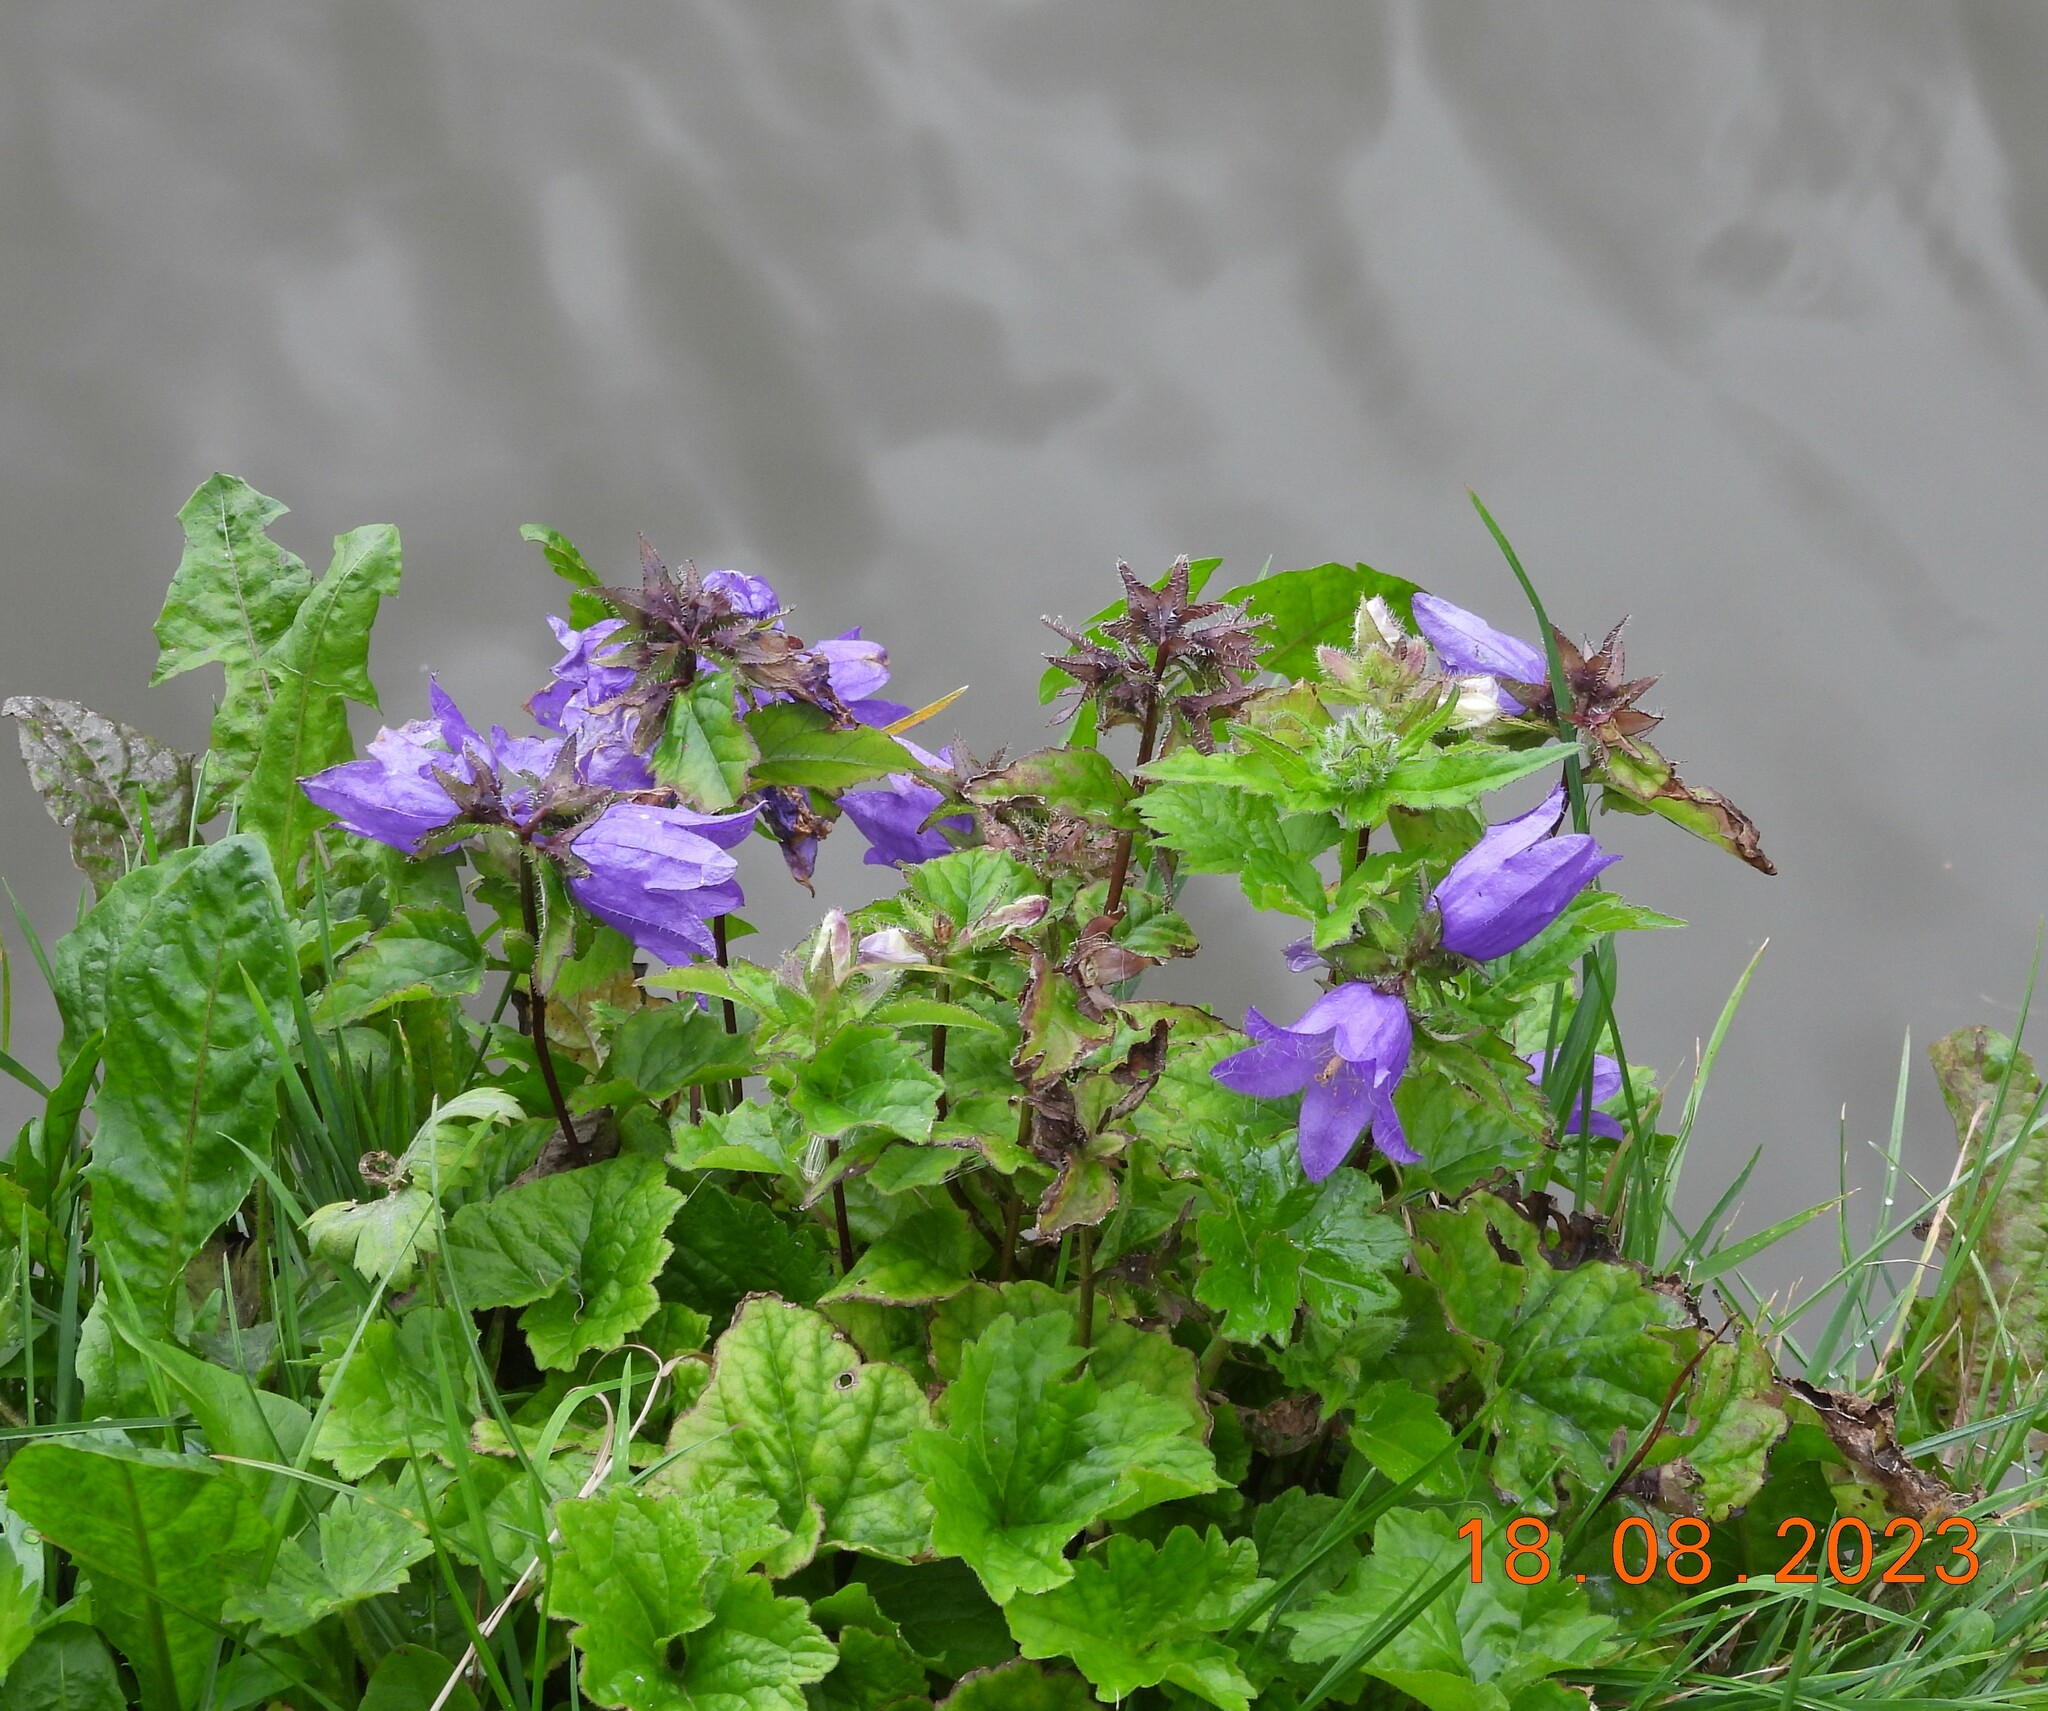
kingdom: Plantae
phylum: Tracheophyta
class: Magnoliopsida
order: Asterales
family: Campanulaceae
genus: Campanula
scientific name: Campanula trachelium
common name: Nettle-leaved bellflower
